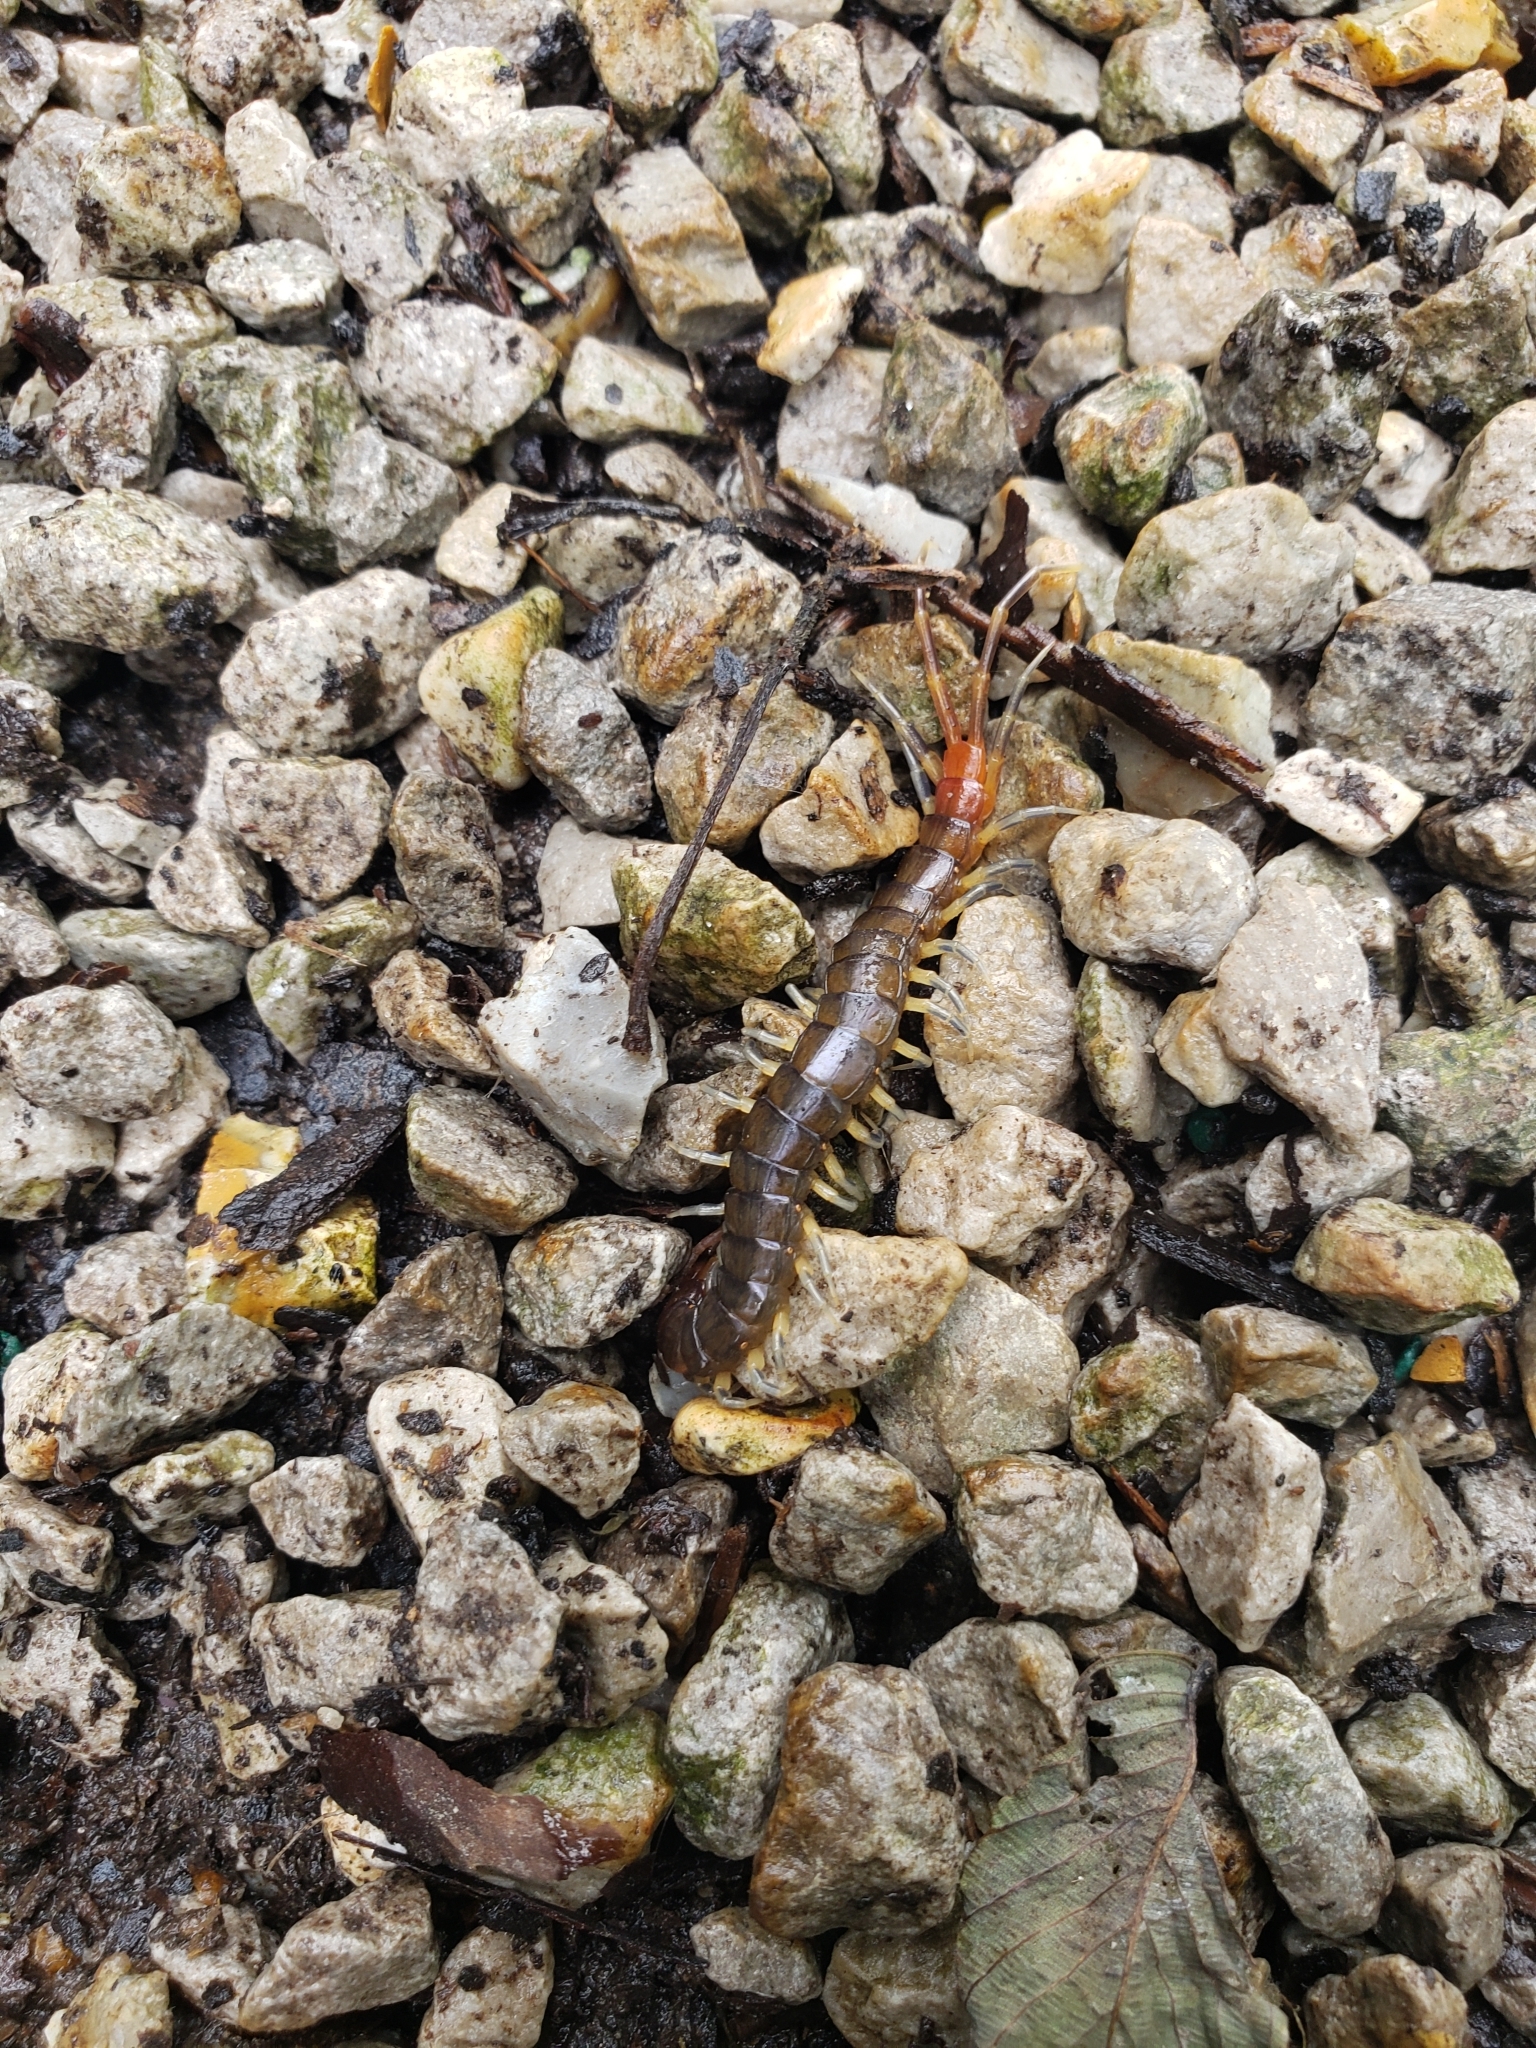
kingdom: Animalia
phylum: Arthropoda
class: Chilopoda
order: Scolopendromorpha
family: Scolopendridae
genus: Rhysida
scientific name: Rhysida longipes
